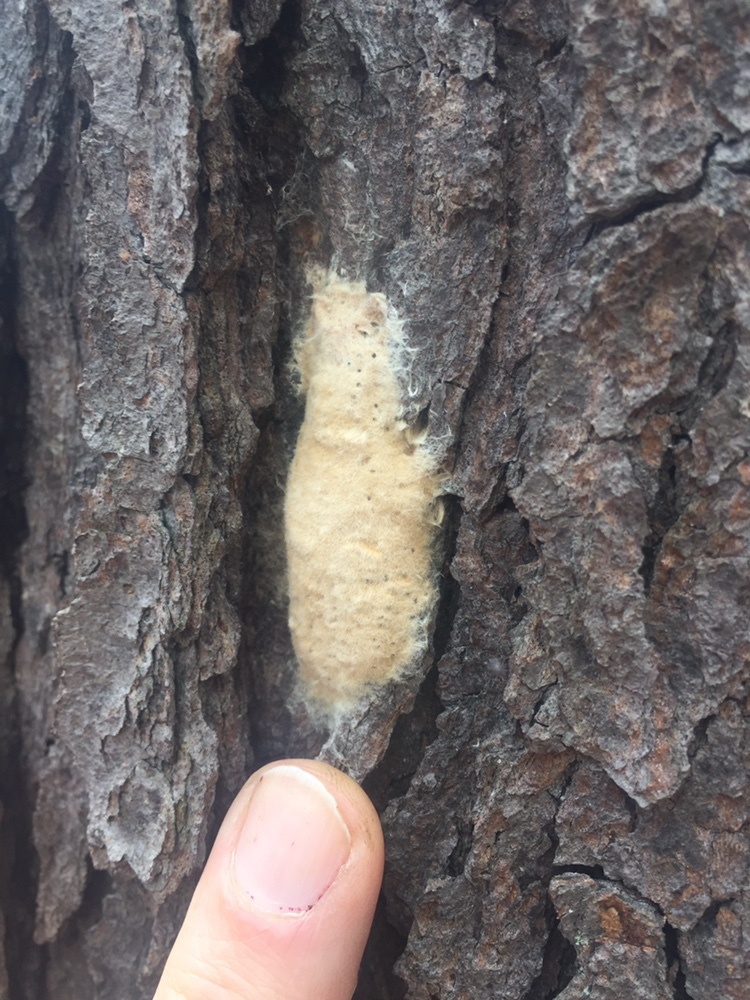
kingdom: Animalia
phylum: Arthropoda
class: Insecta
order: Lepidoptera
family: Erebidae
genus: Lymantria
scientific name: Lymantria dispar
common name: Gypsy moth
